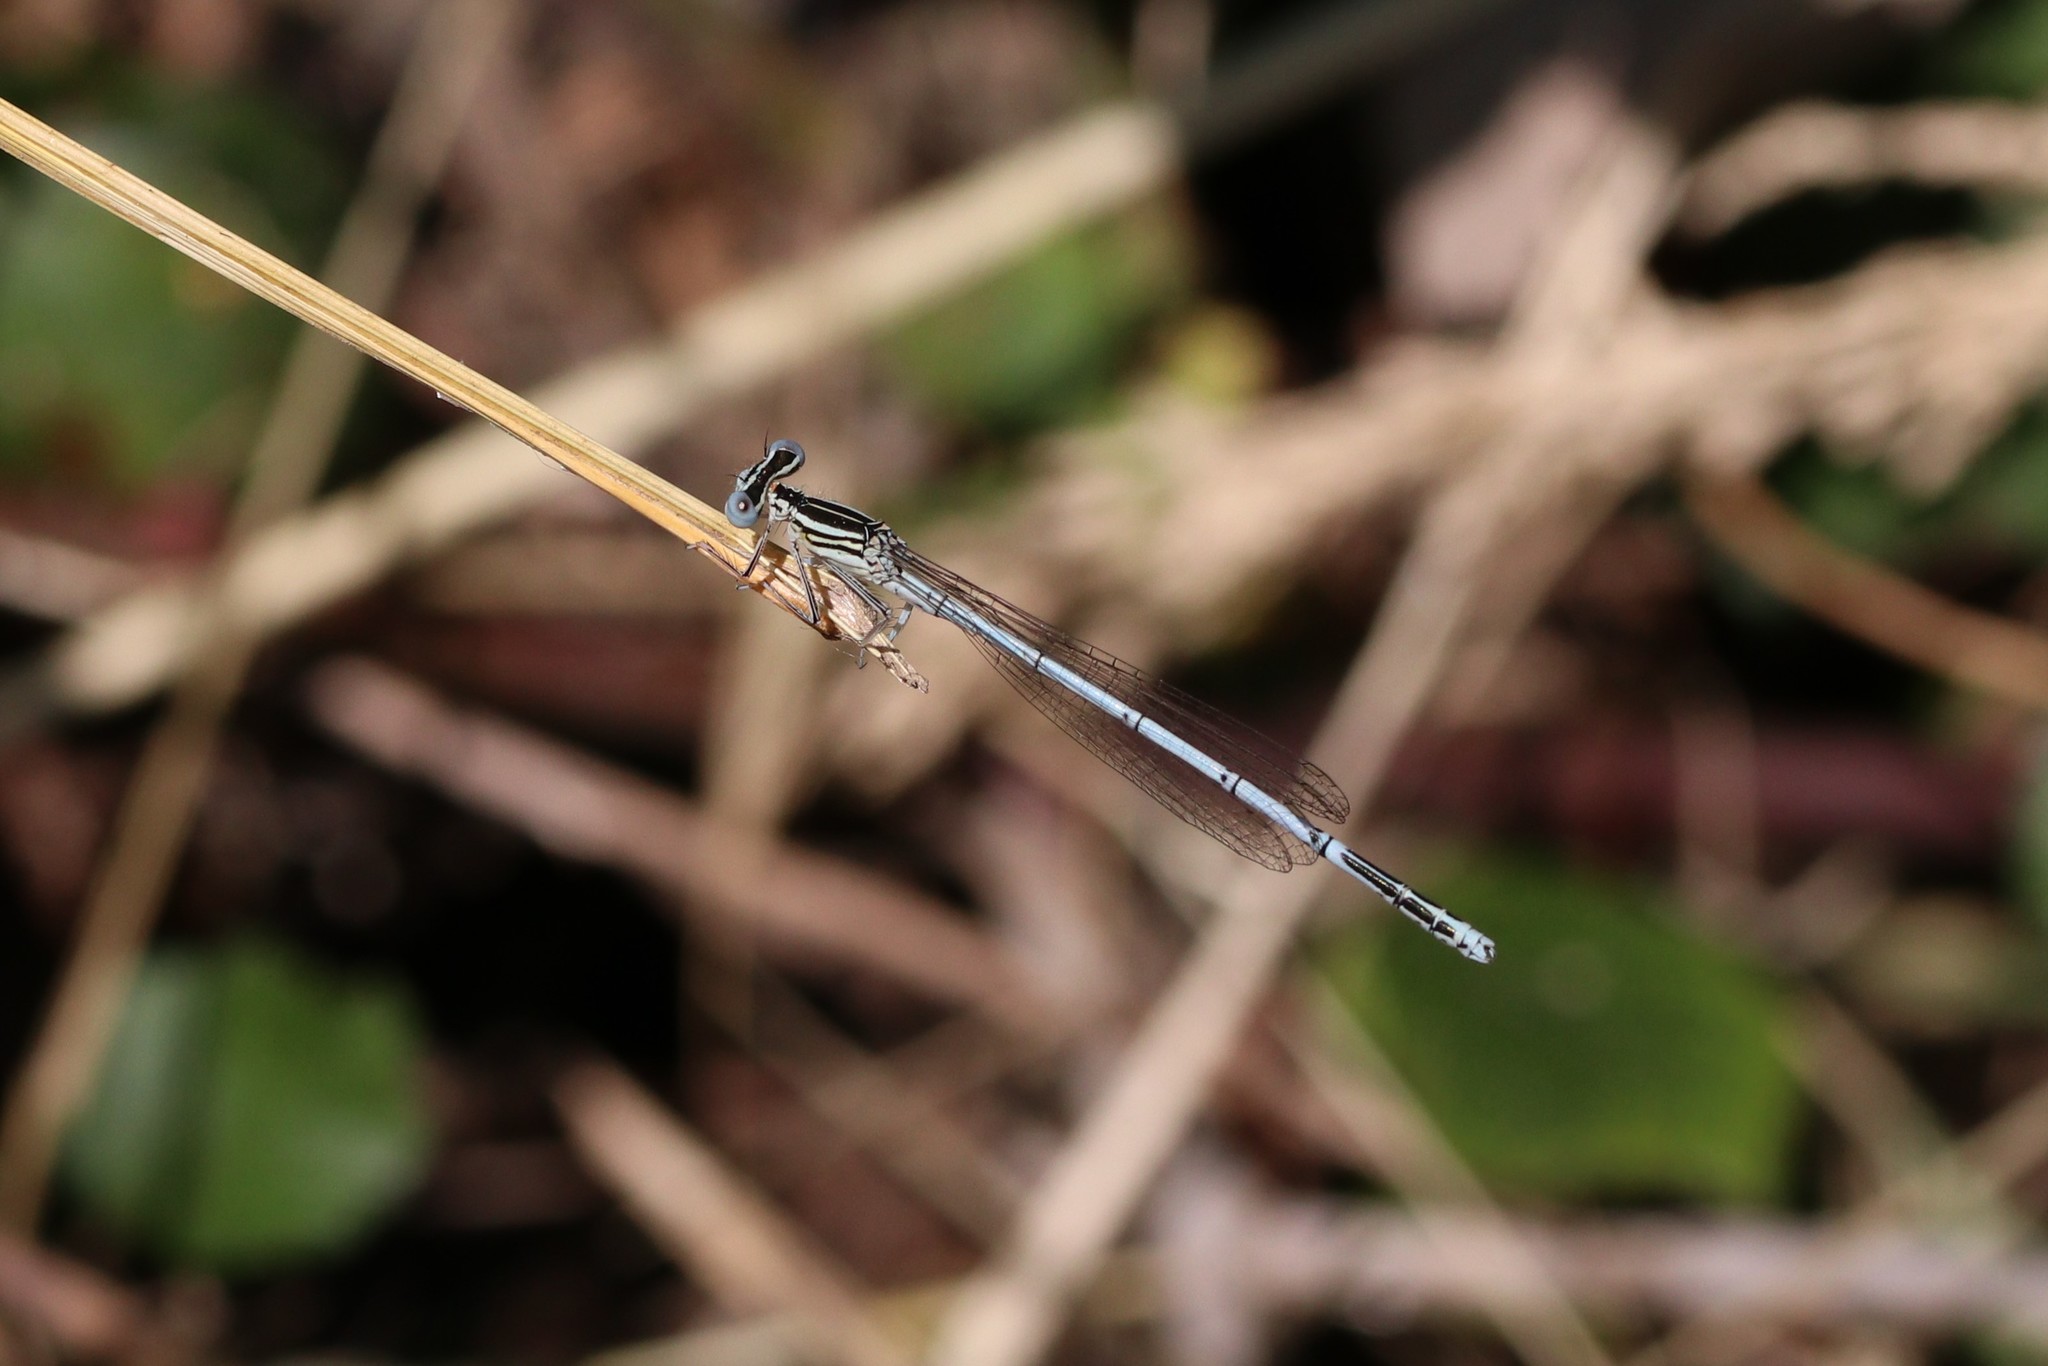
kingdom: Animalia
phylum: Arthropoda
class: Insecta
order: Odonata
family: Platycnemididae
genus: Platycnemis
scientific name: Platycnemis pennipes
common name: White-legged damselfly
